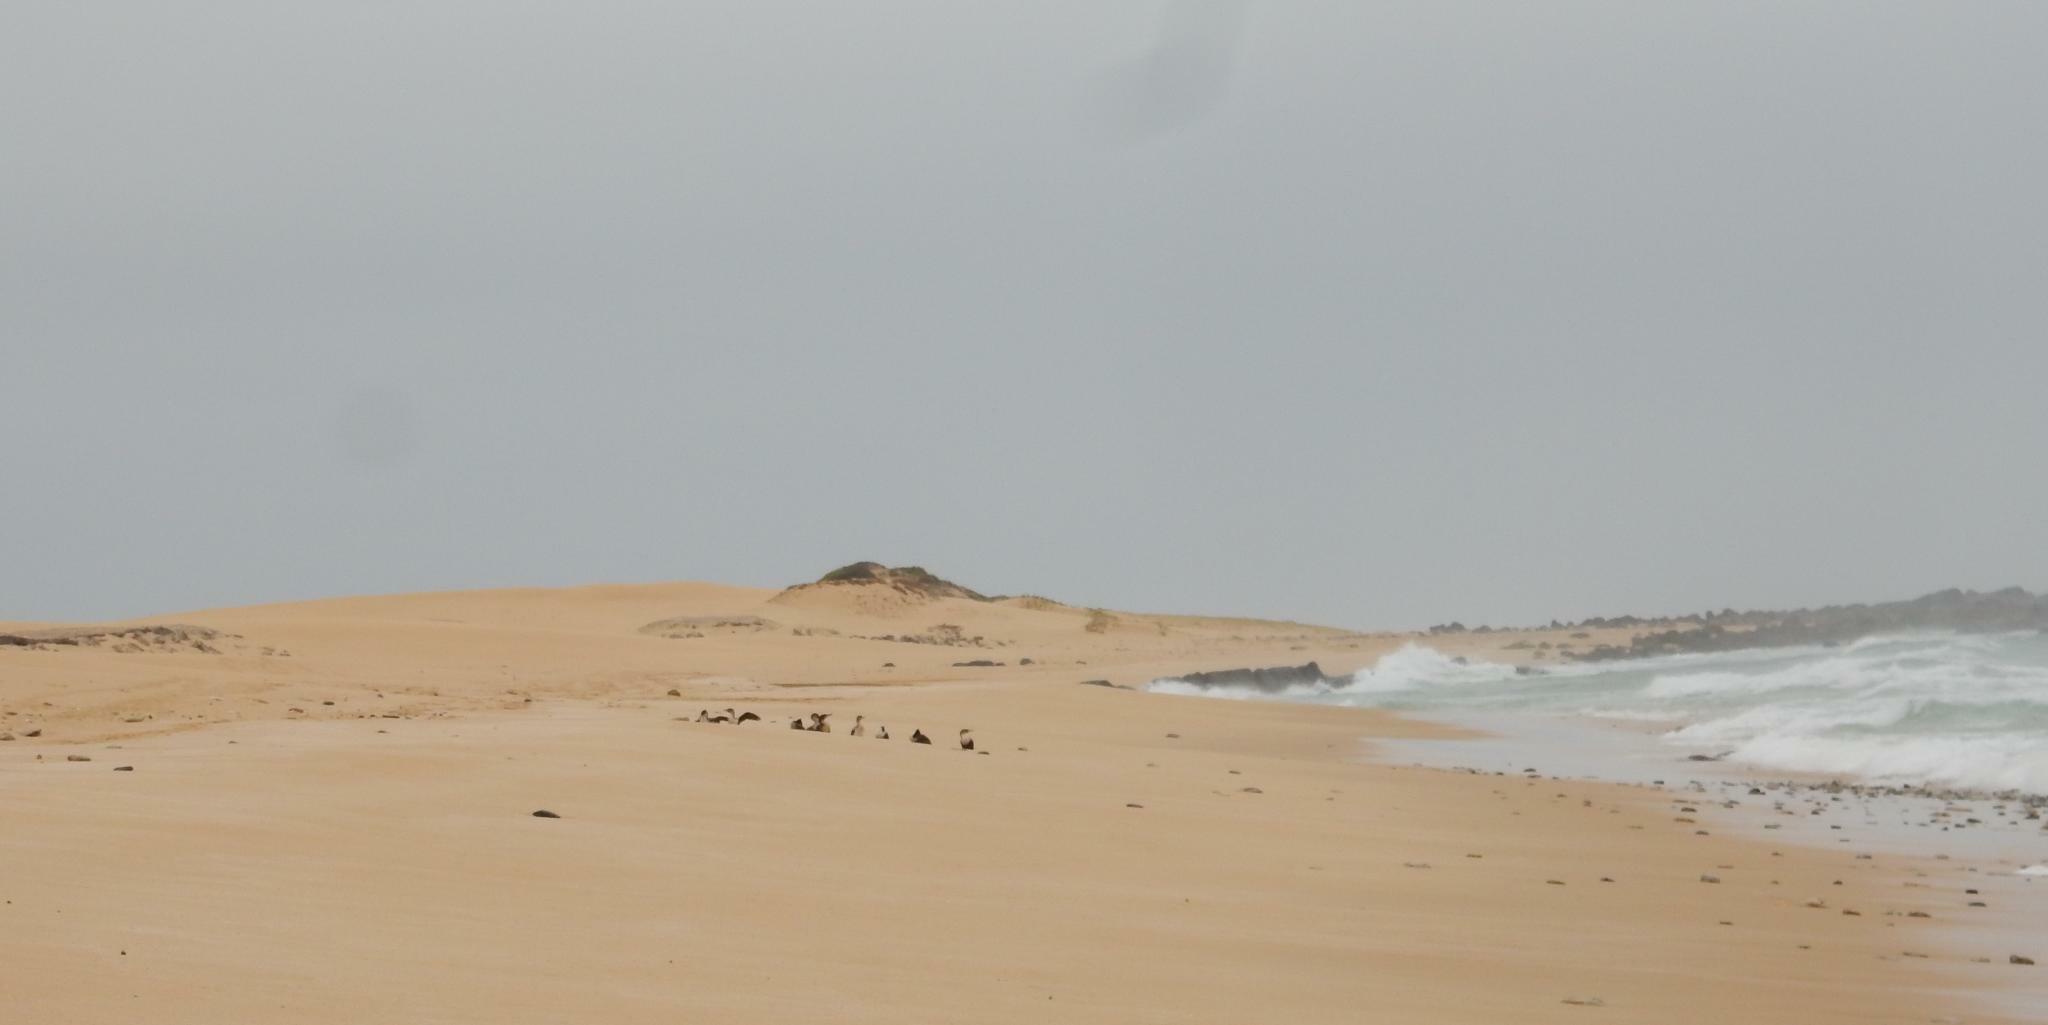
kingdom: Animalia
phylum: Chordata
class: Aves
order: Suliformes
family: Phalacrocoracidae
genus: Phalacrocorax
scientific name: Phalacrocorax carbo
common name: Great cormorant
